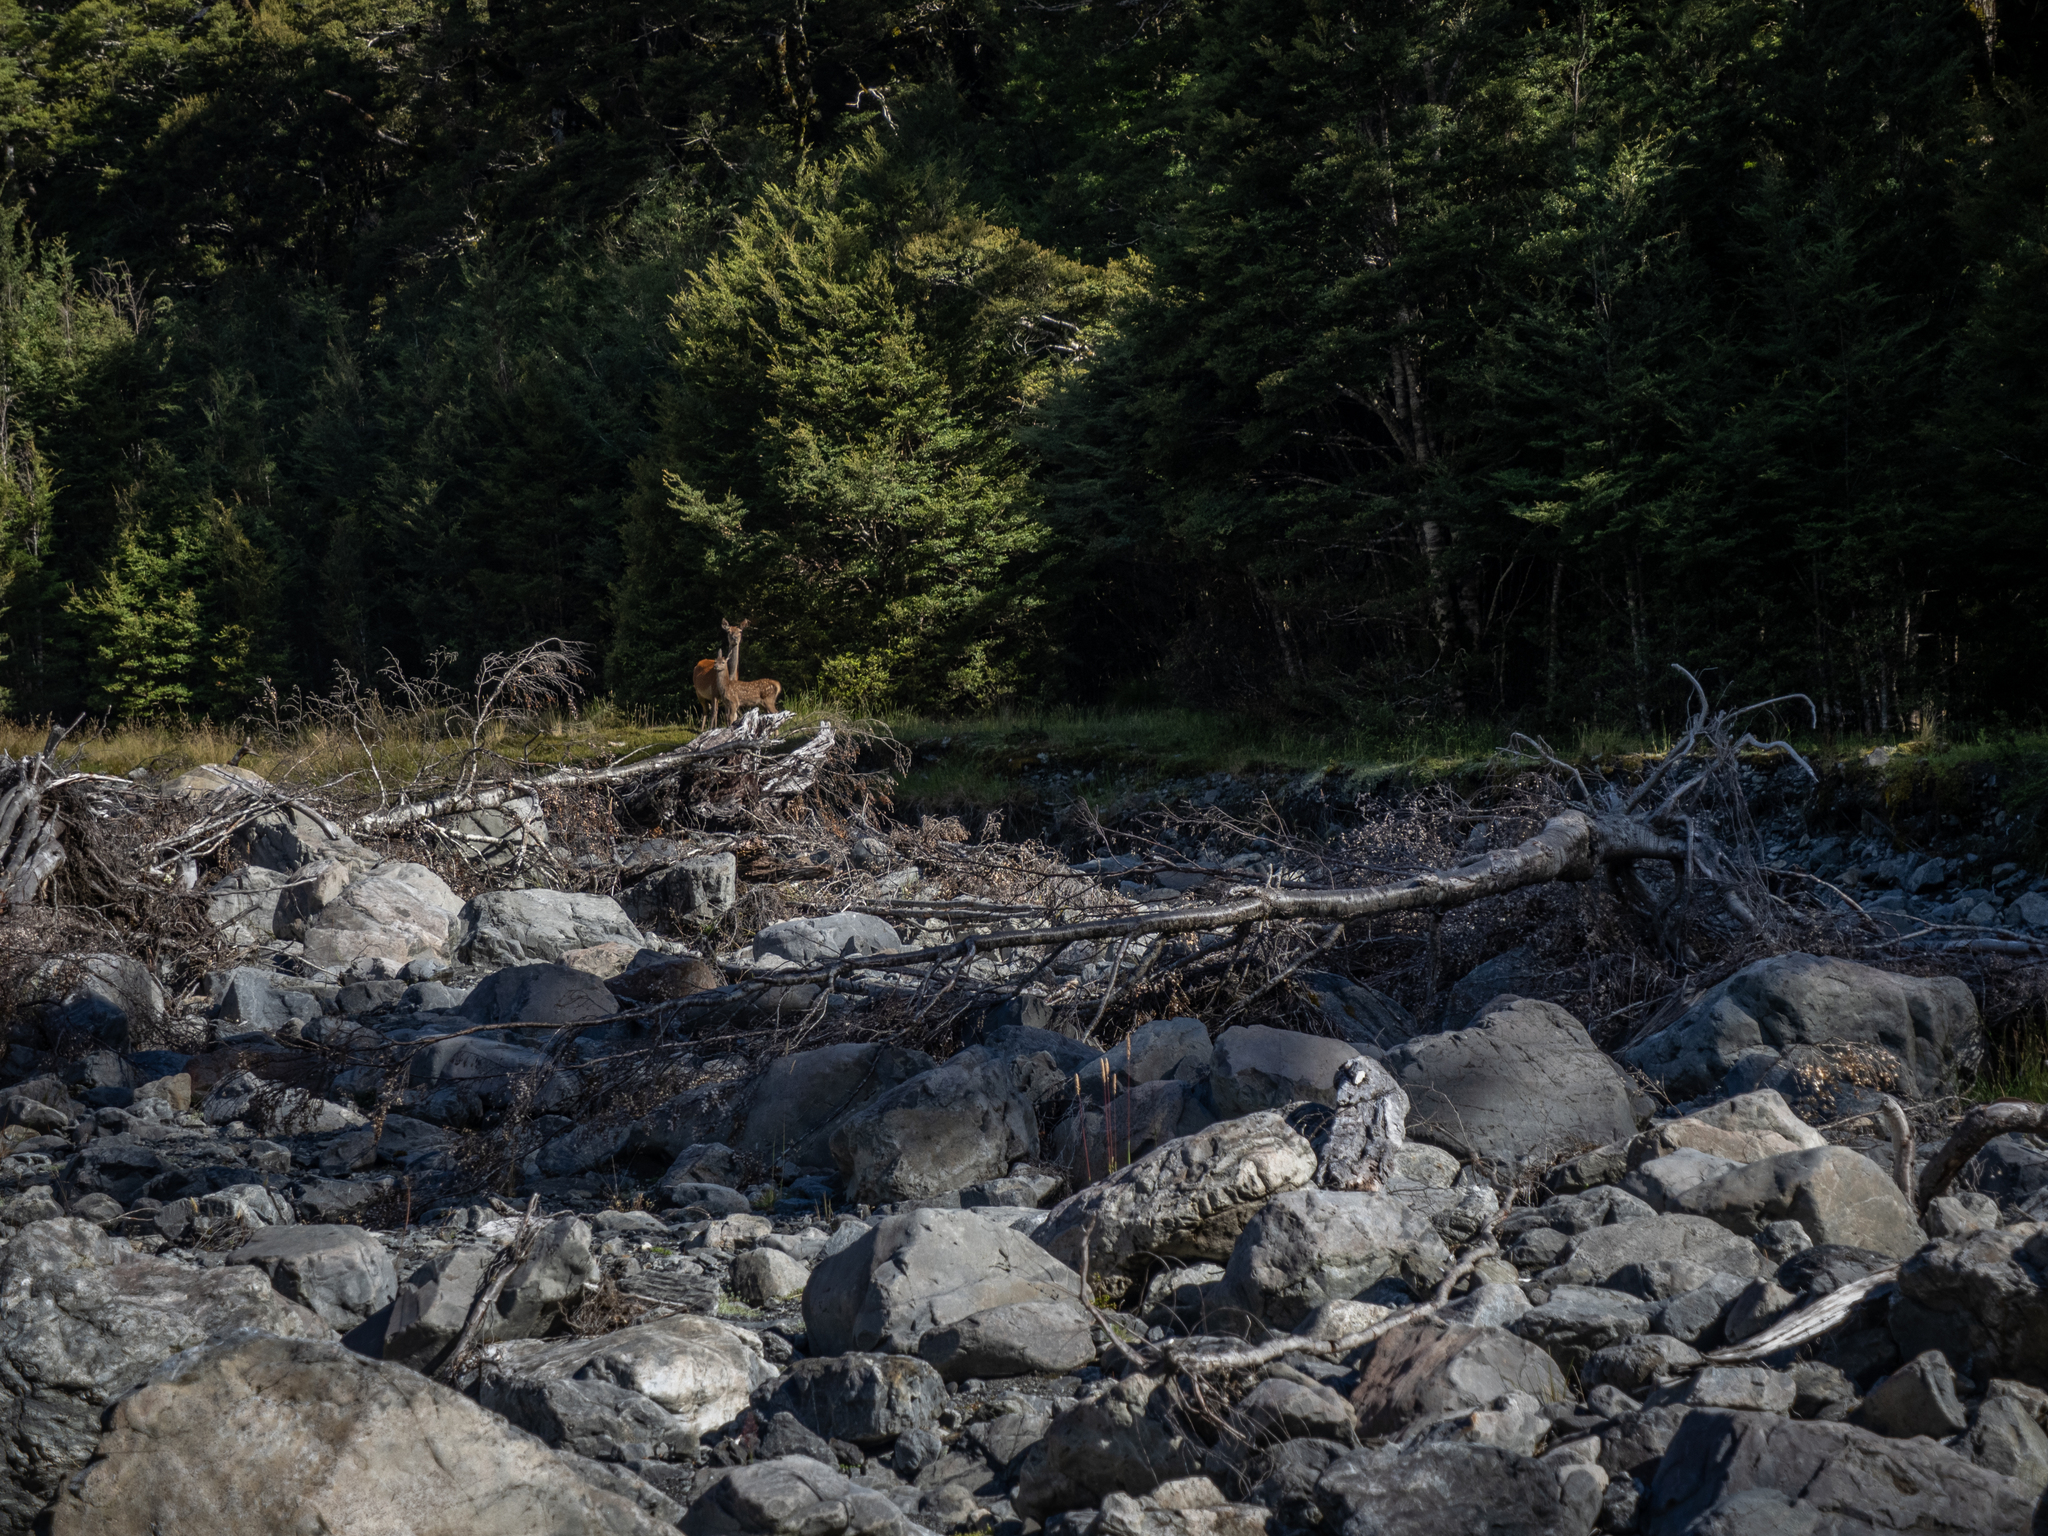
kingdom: Animalia
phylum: Chordata
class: Mammalia
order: Artiodactyla
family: Cervidae
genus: Cervus
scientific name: Cervus elaphus
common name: Red deer
